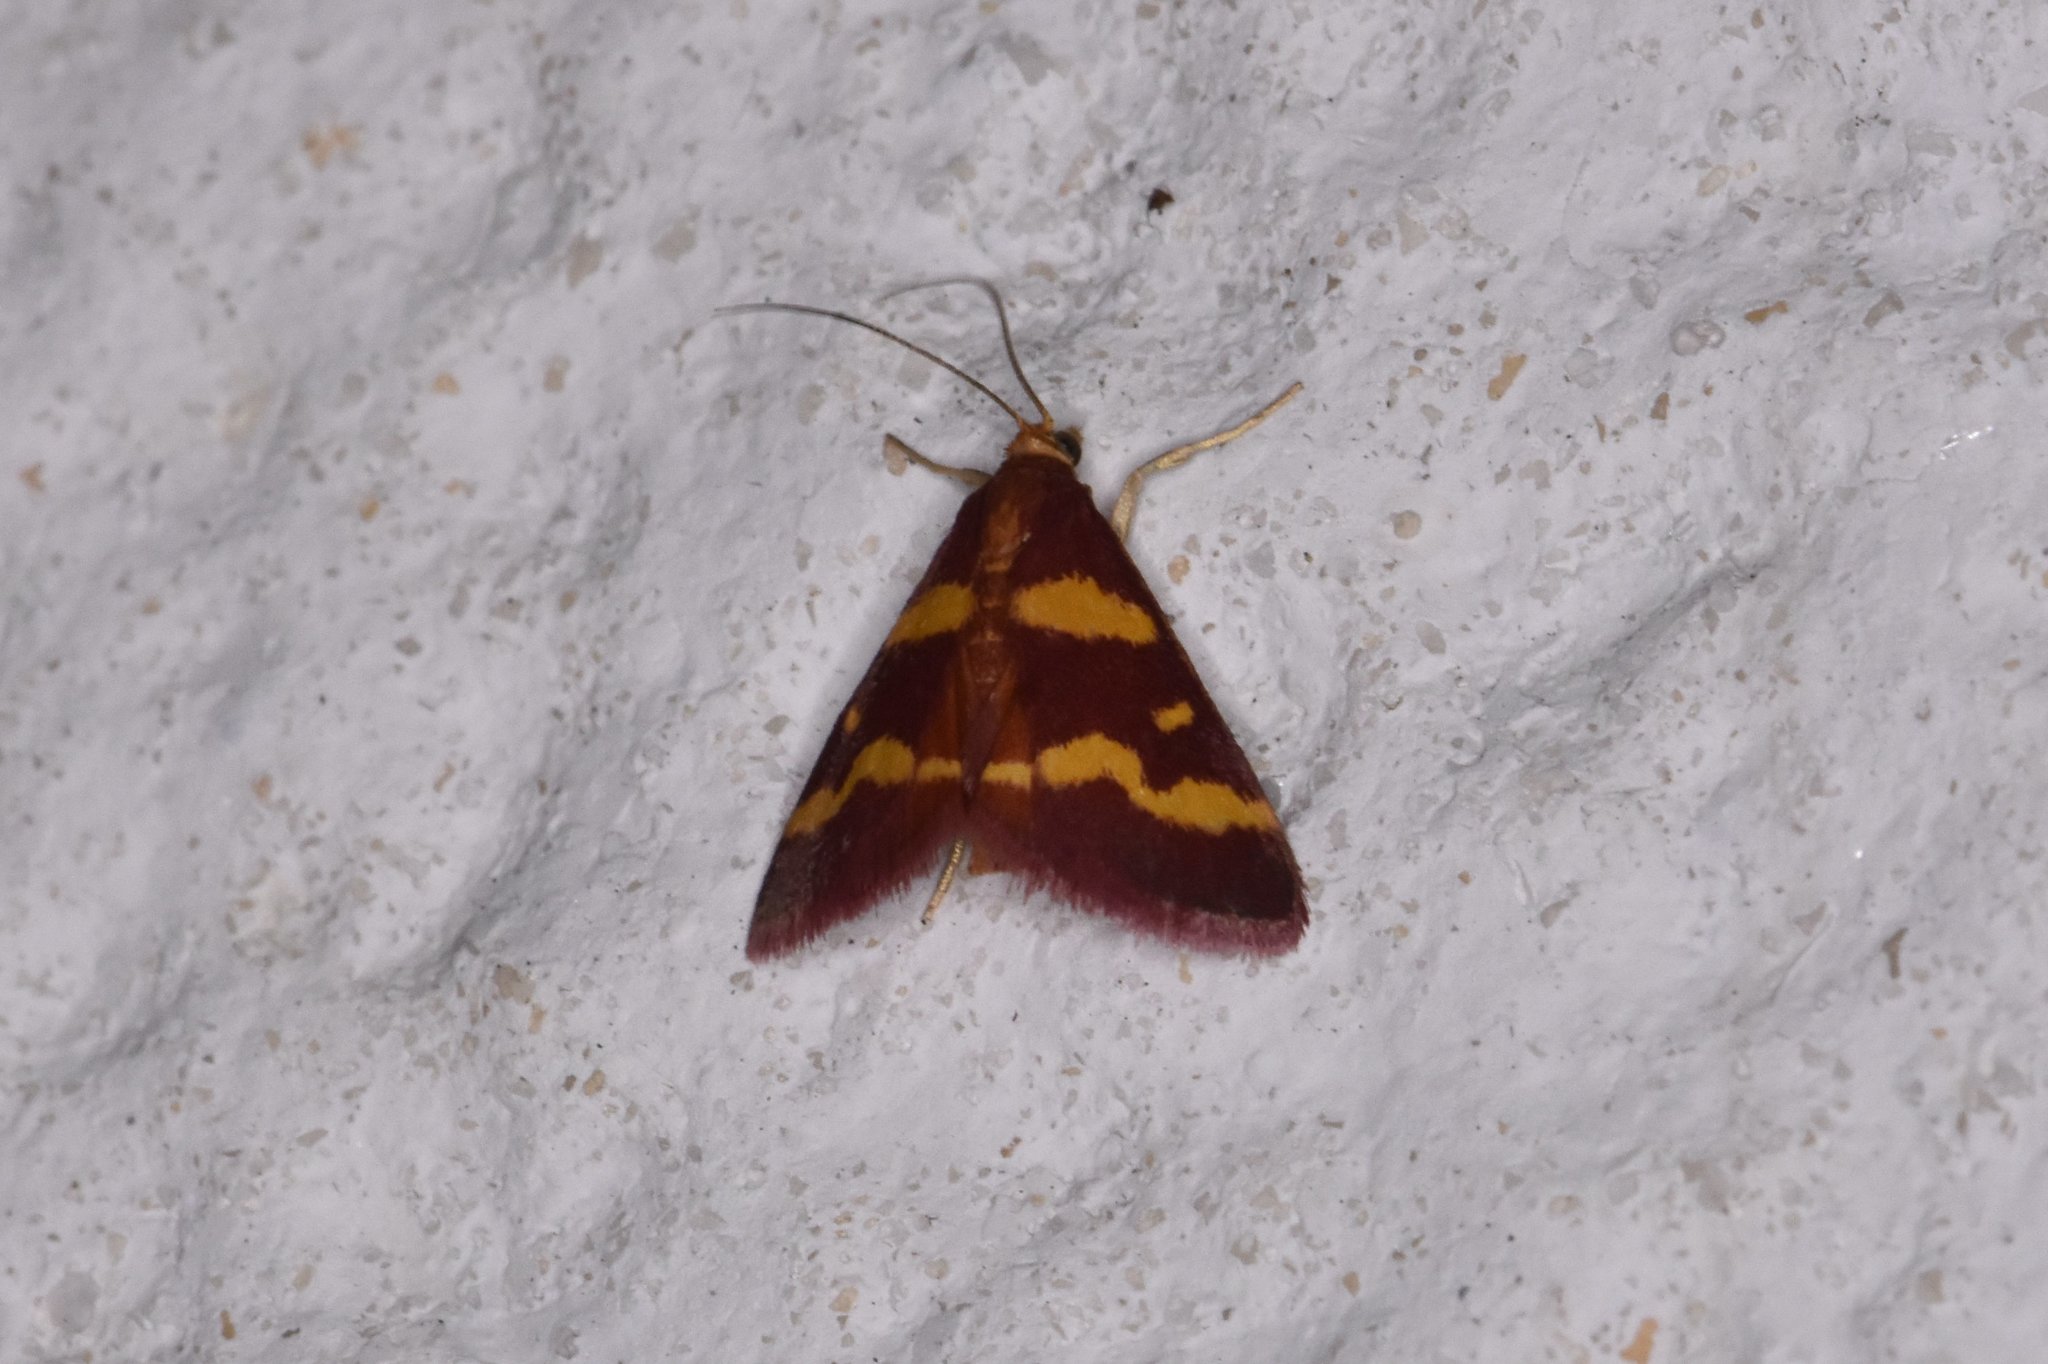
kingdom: Animalia
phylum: Arthropoda
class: Insecta
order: Lepidoptera
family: Crambidae
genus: Pyrausta
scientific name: Pyrausta tyralis
